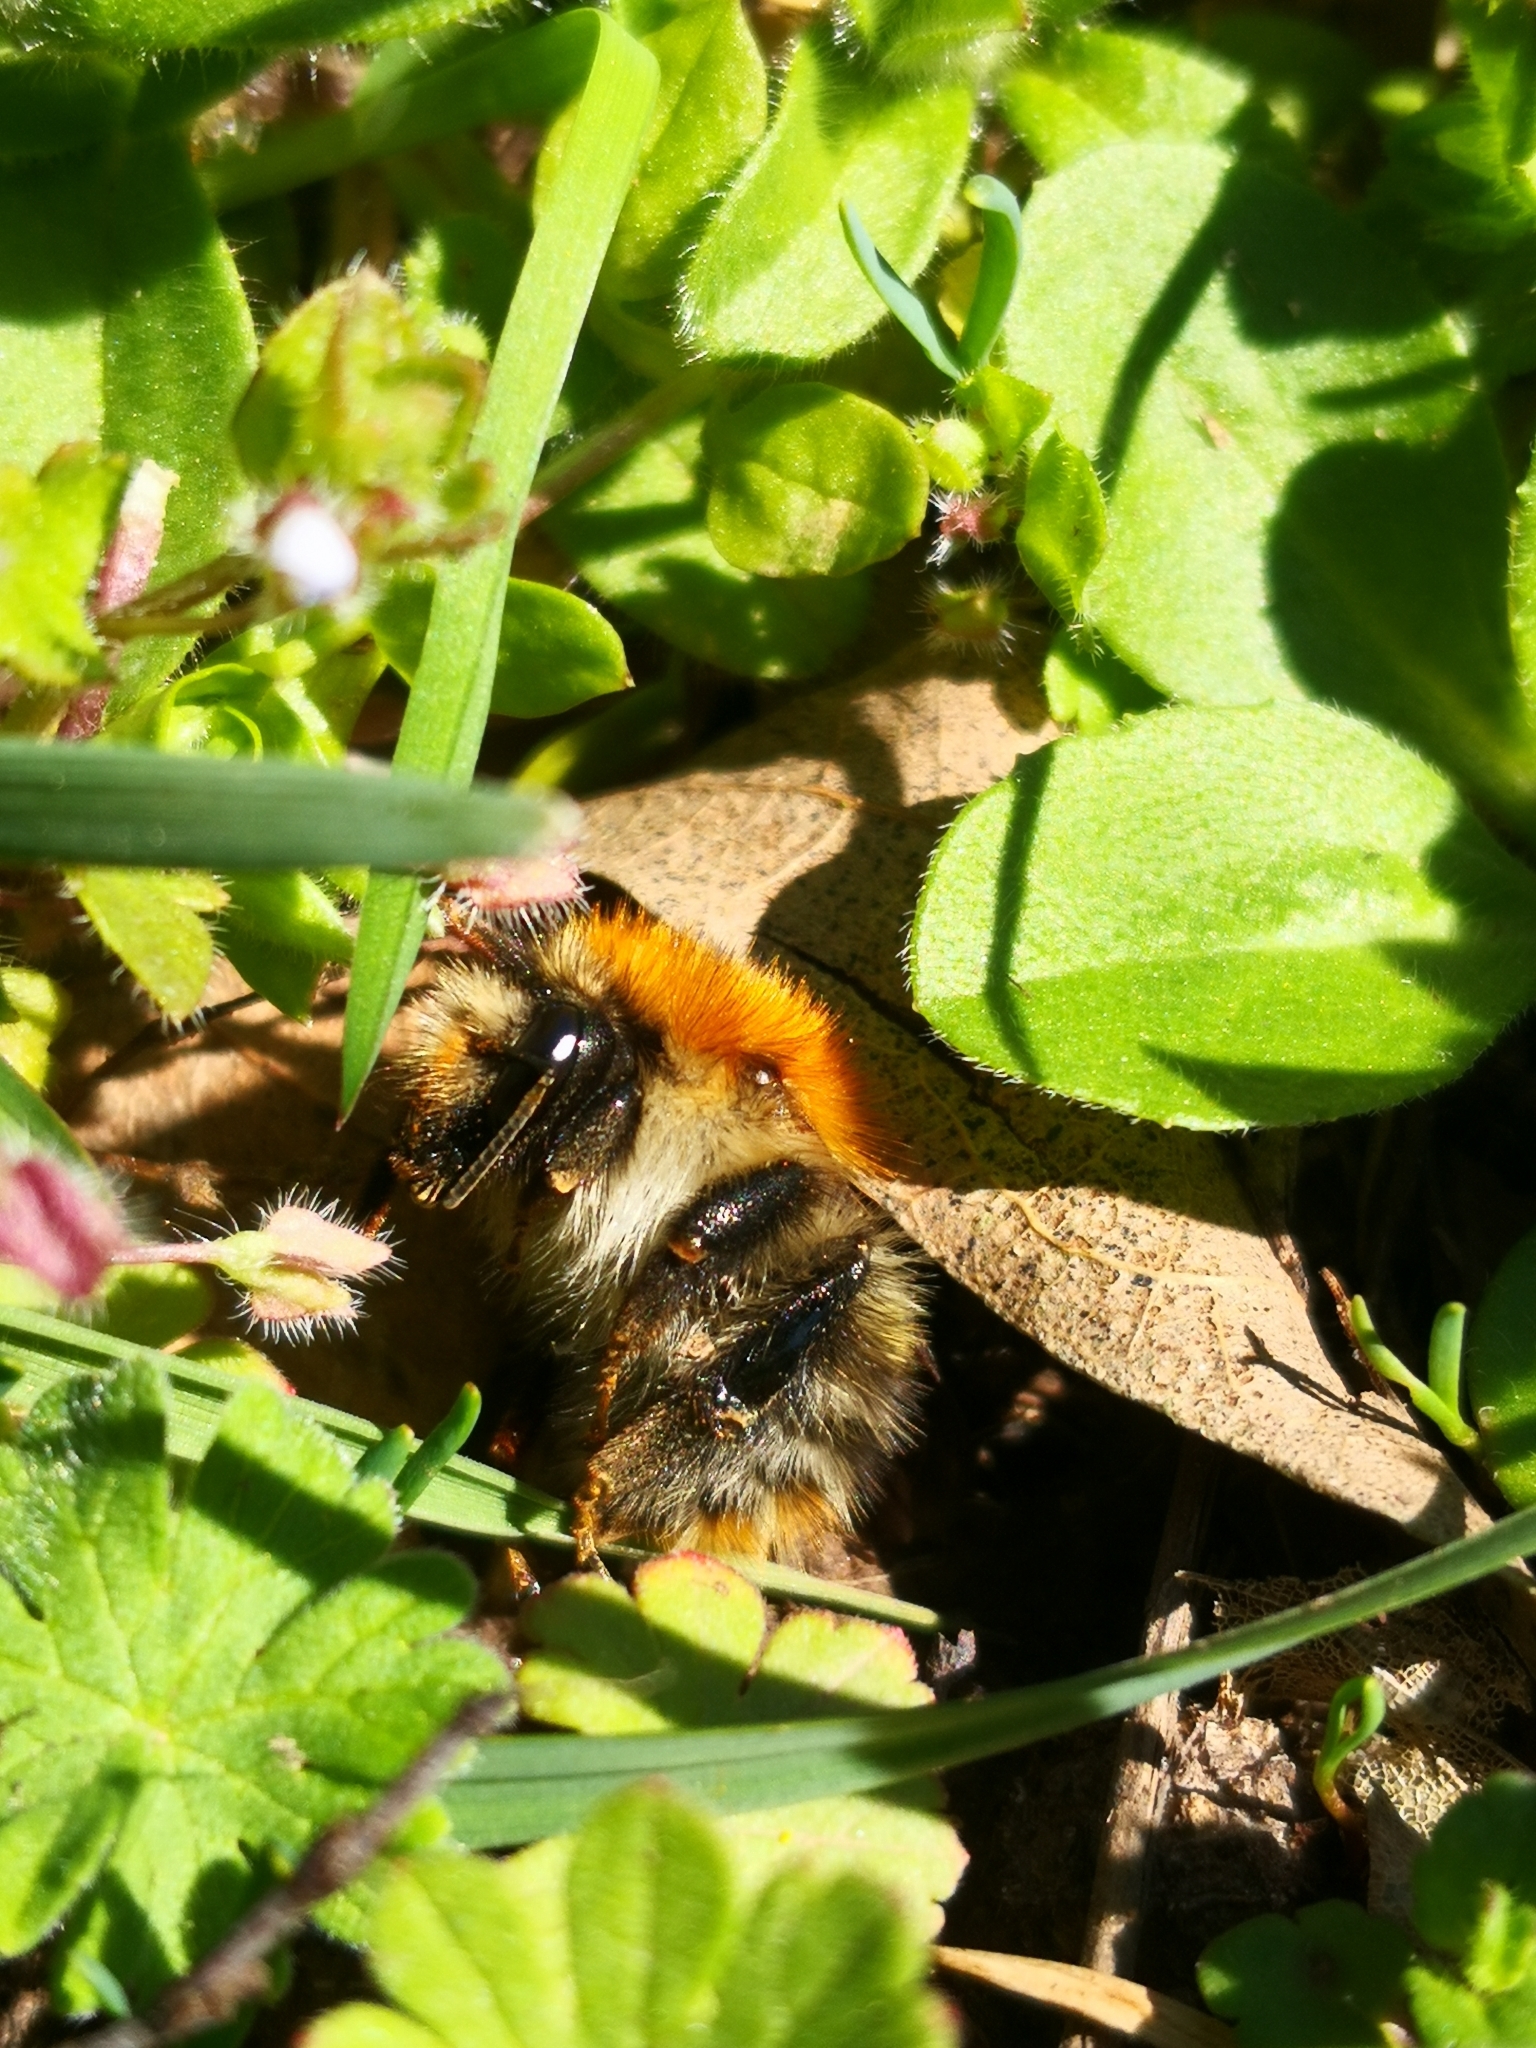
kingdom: Animalia
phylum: Arthropoda
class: Insecta
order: Hymenoptera
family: Apidae
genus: Bombus
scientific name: Bombus pascuorum
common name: Common carder bee
